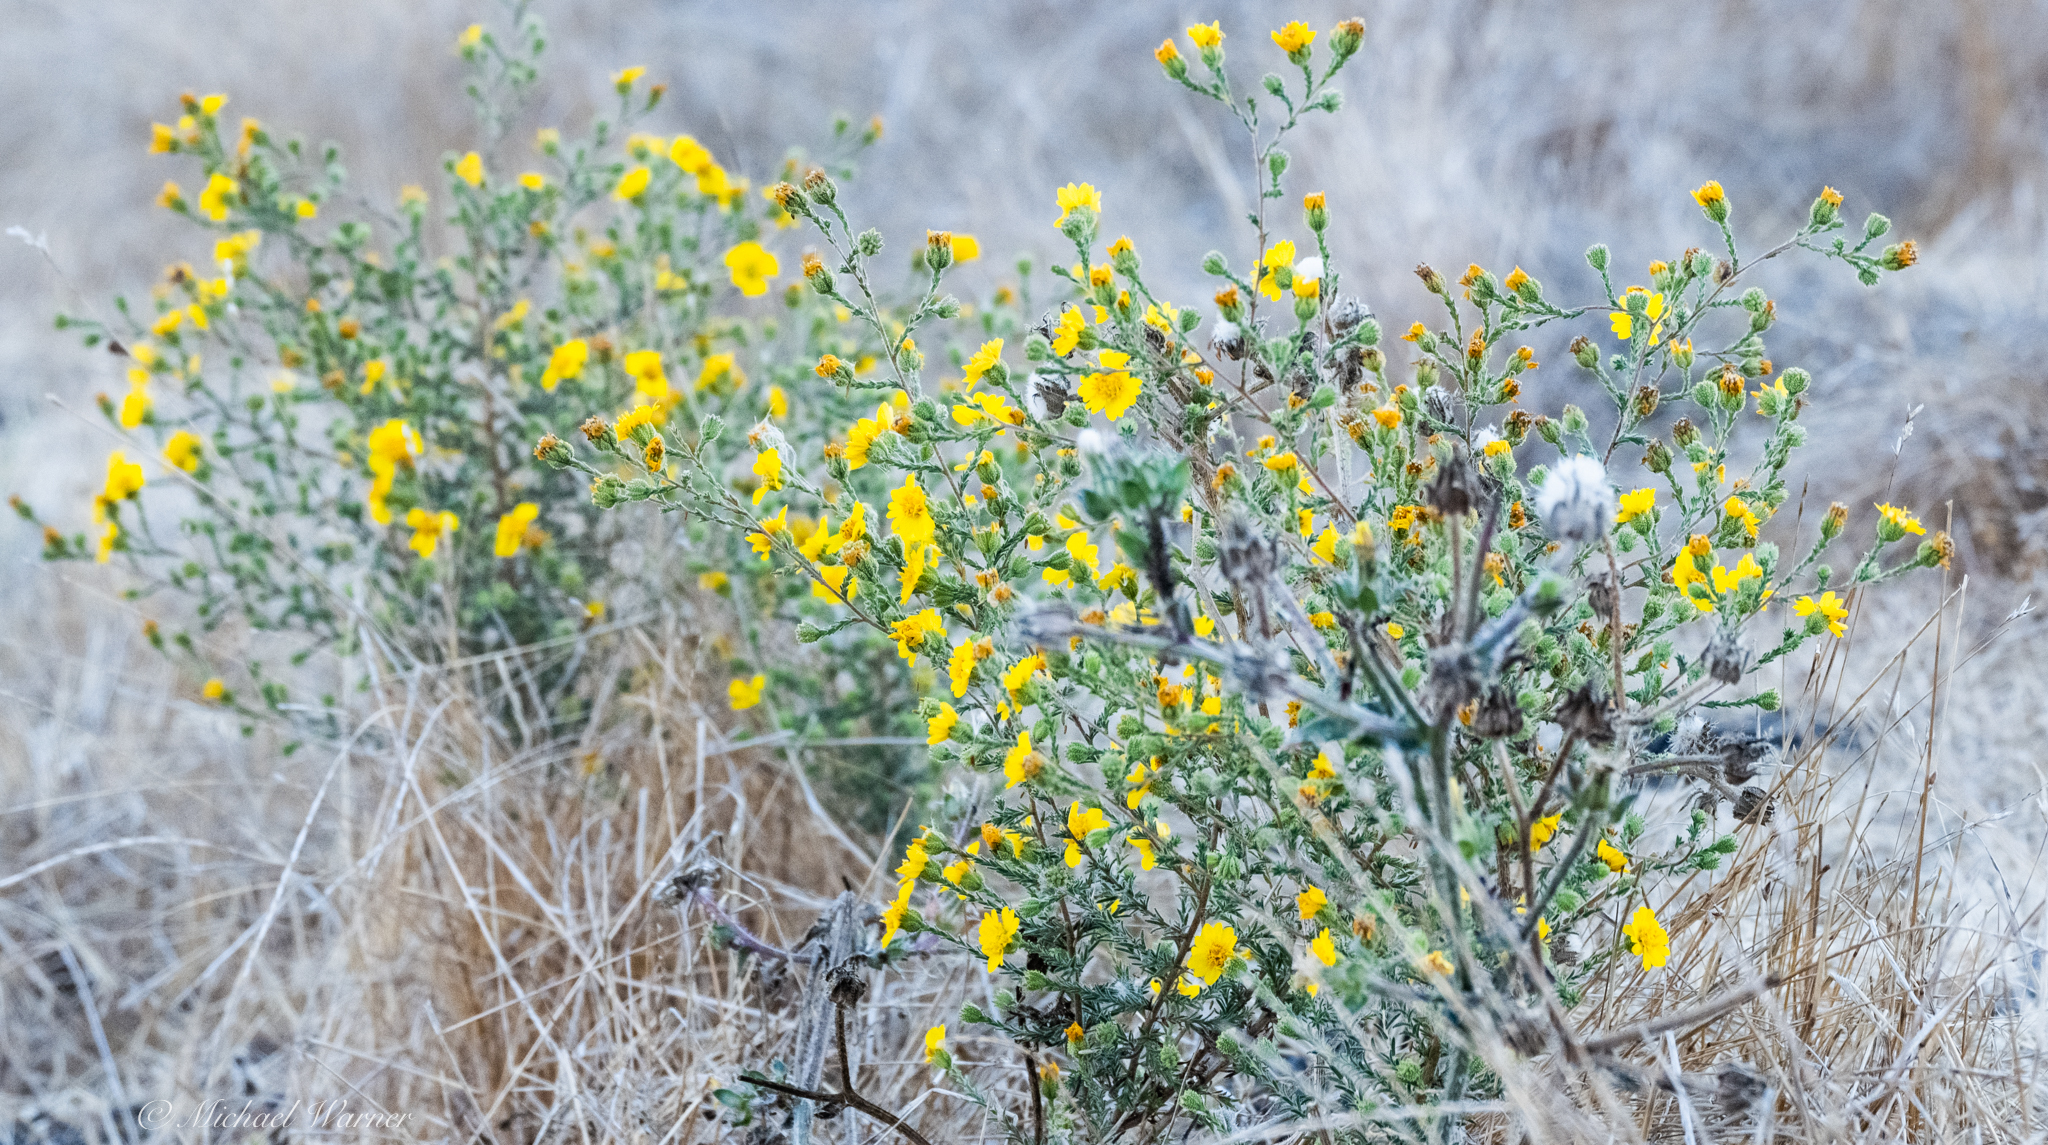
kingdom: Plantae
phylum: Tracheophyta
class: Magnoliopsida
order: Asterales
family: Asteraceae
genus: Holocarpha
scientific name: Holocarpha heermannii
